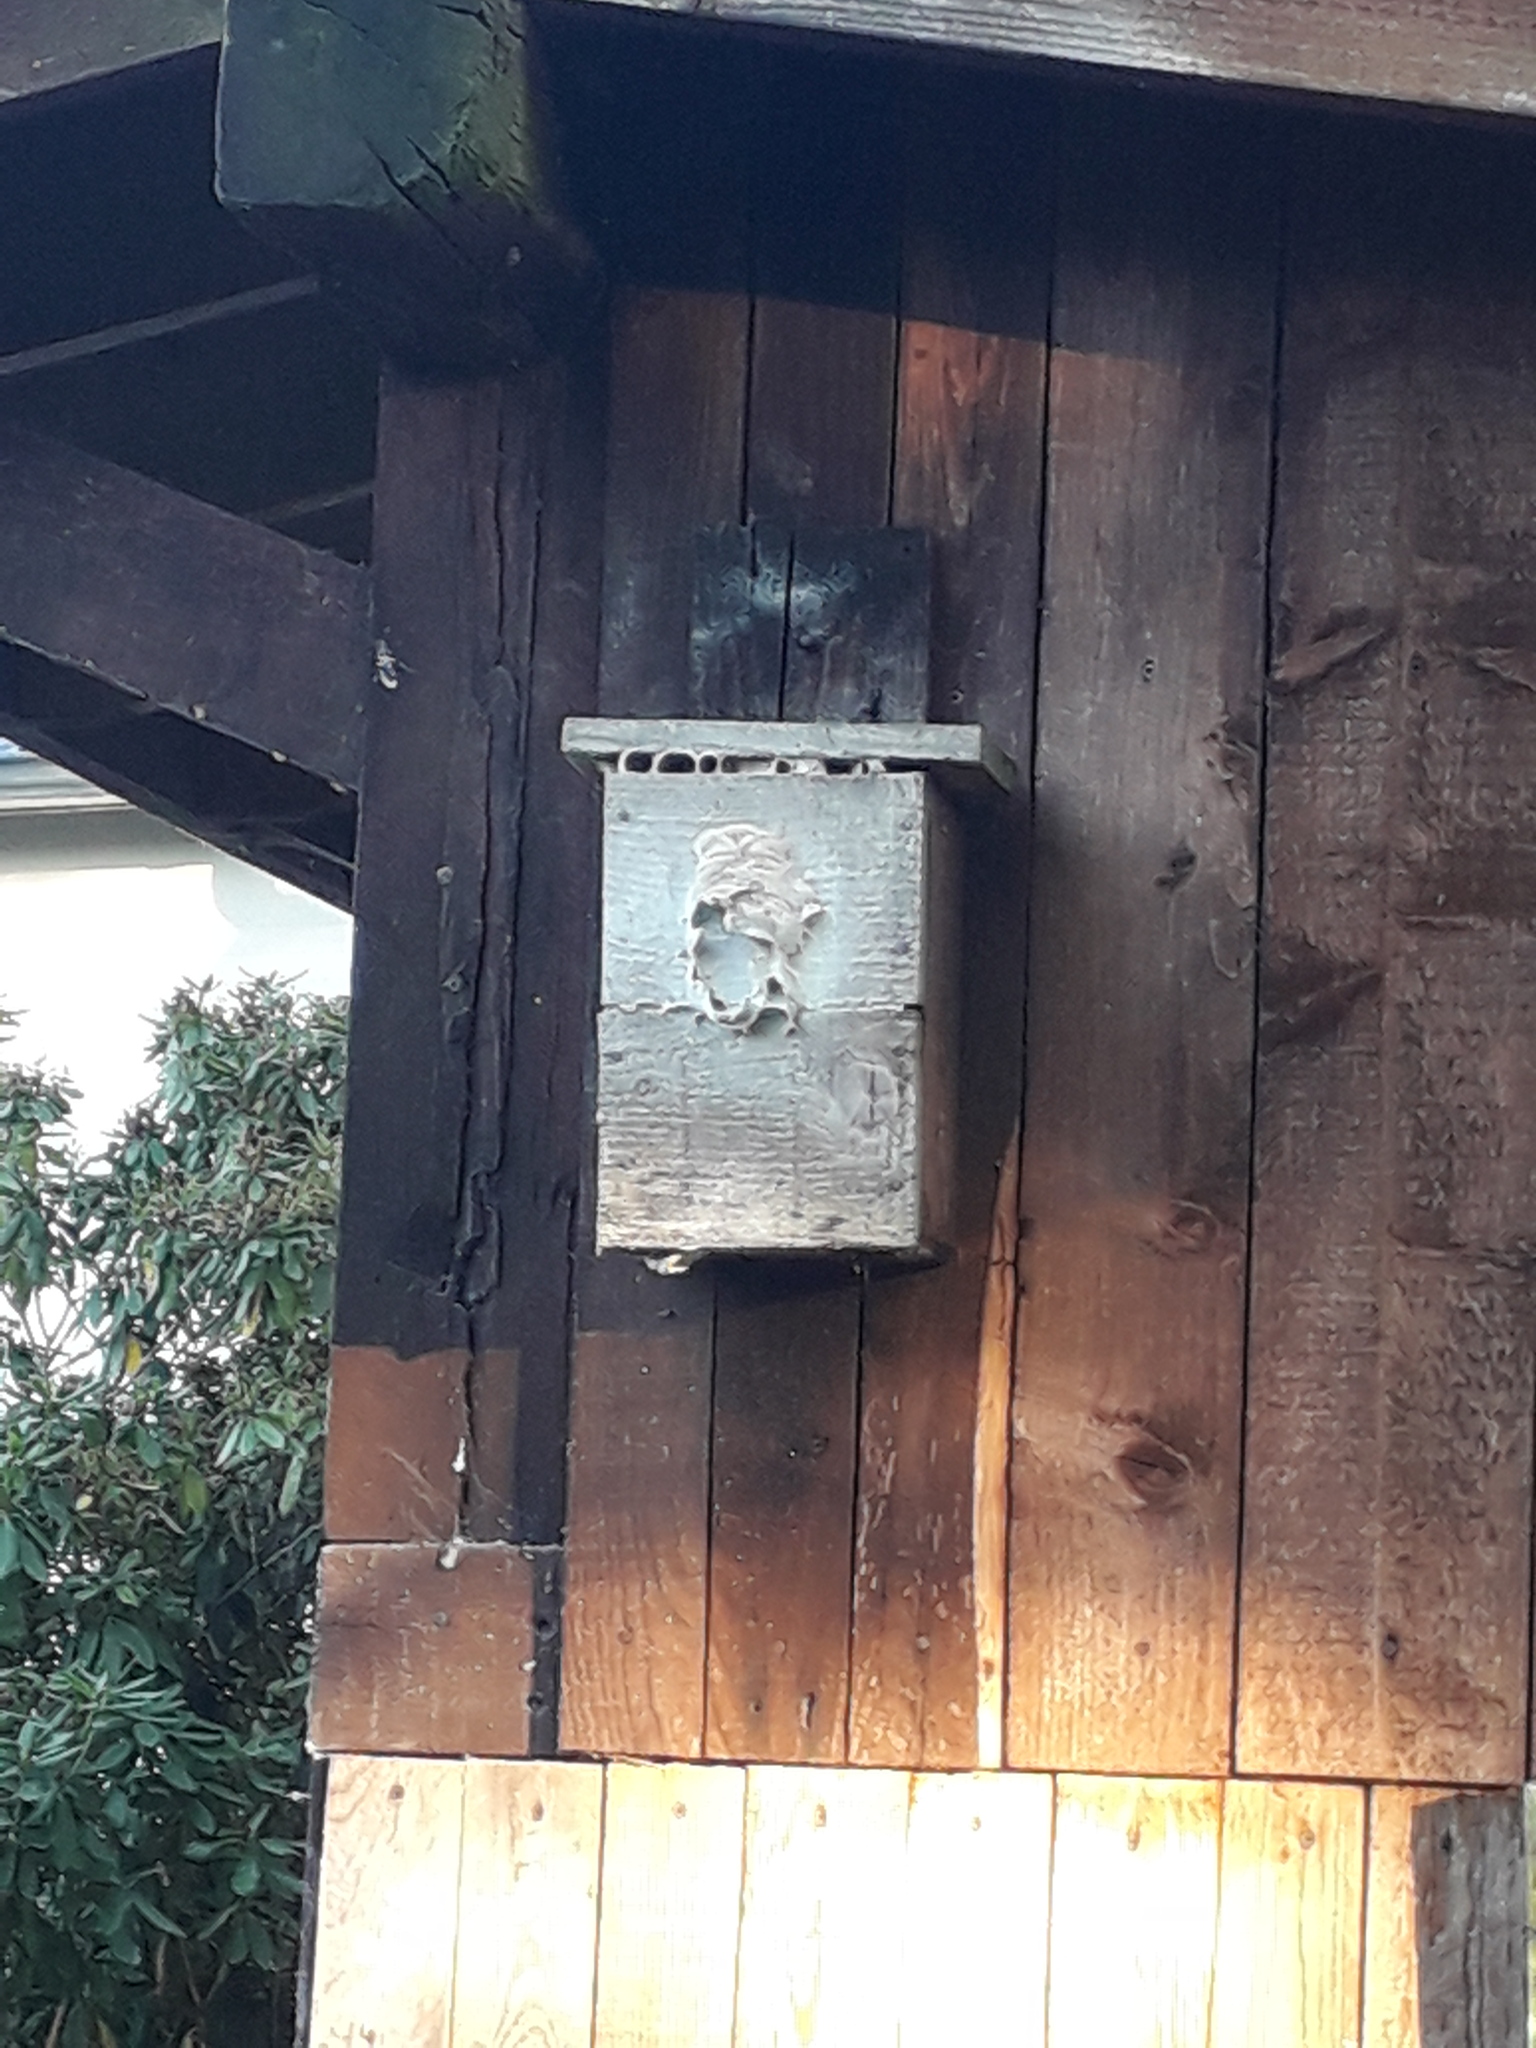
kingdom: Animalia
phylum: Arthropoda
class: Insecta
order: Hymenoptera
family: Vespidae
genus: Vespa
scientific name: Vespa crabro
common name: Hornet
